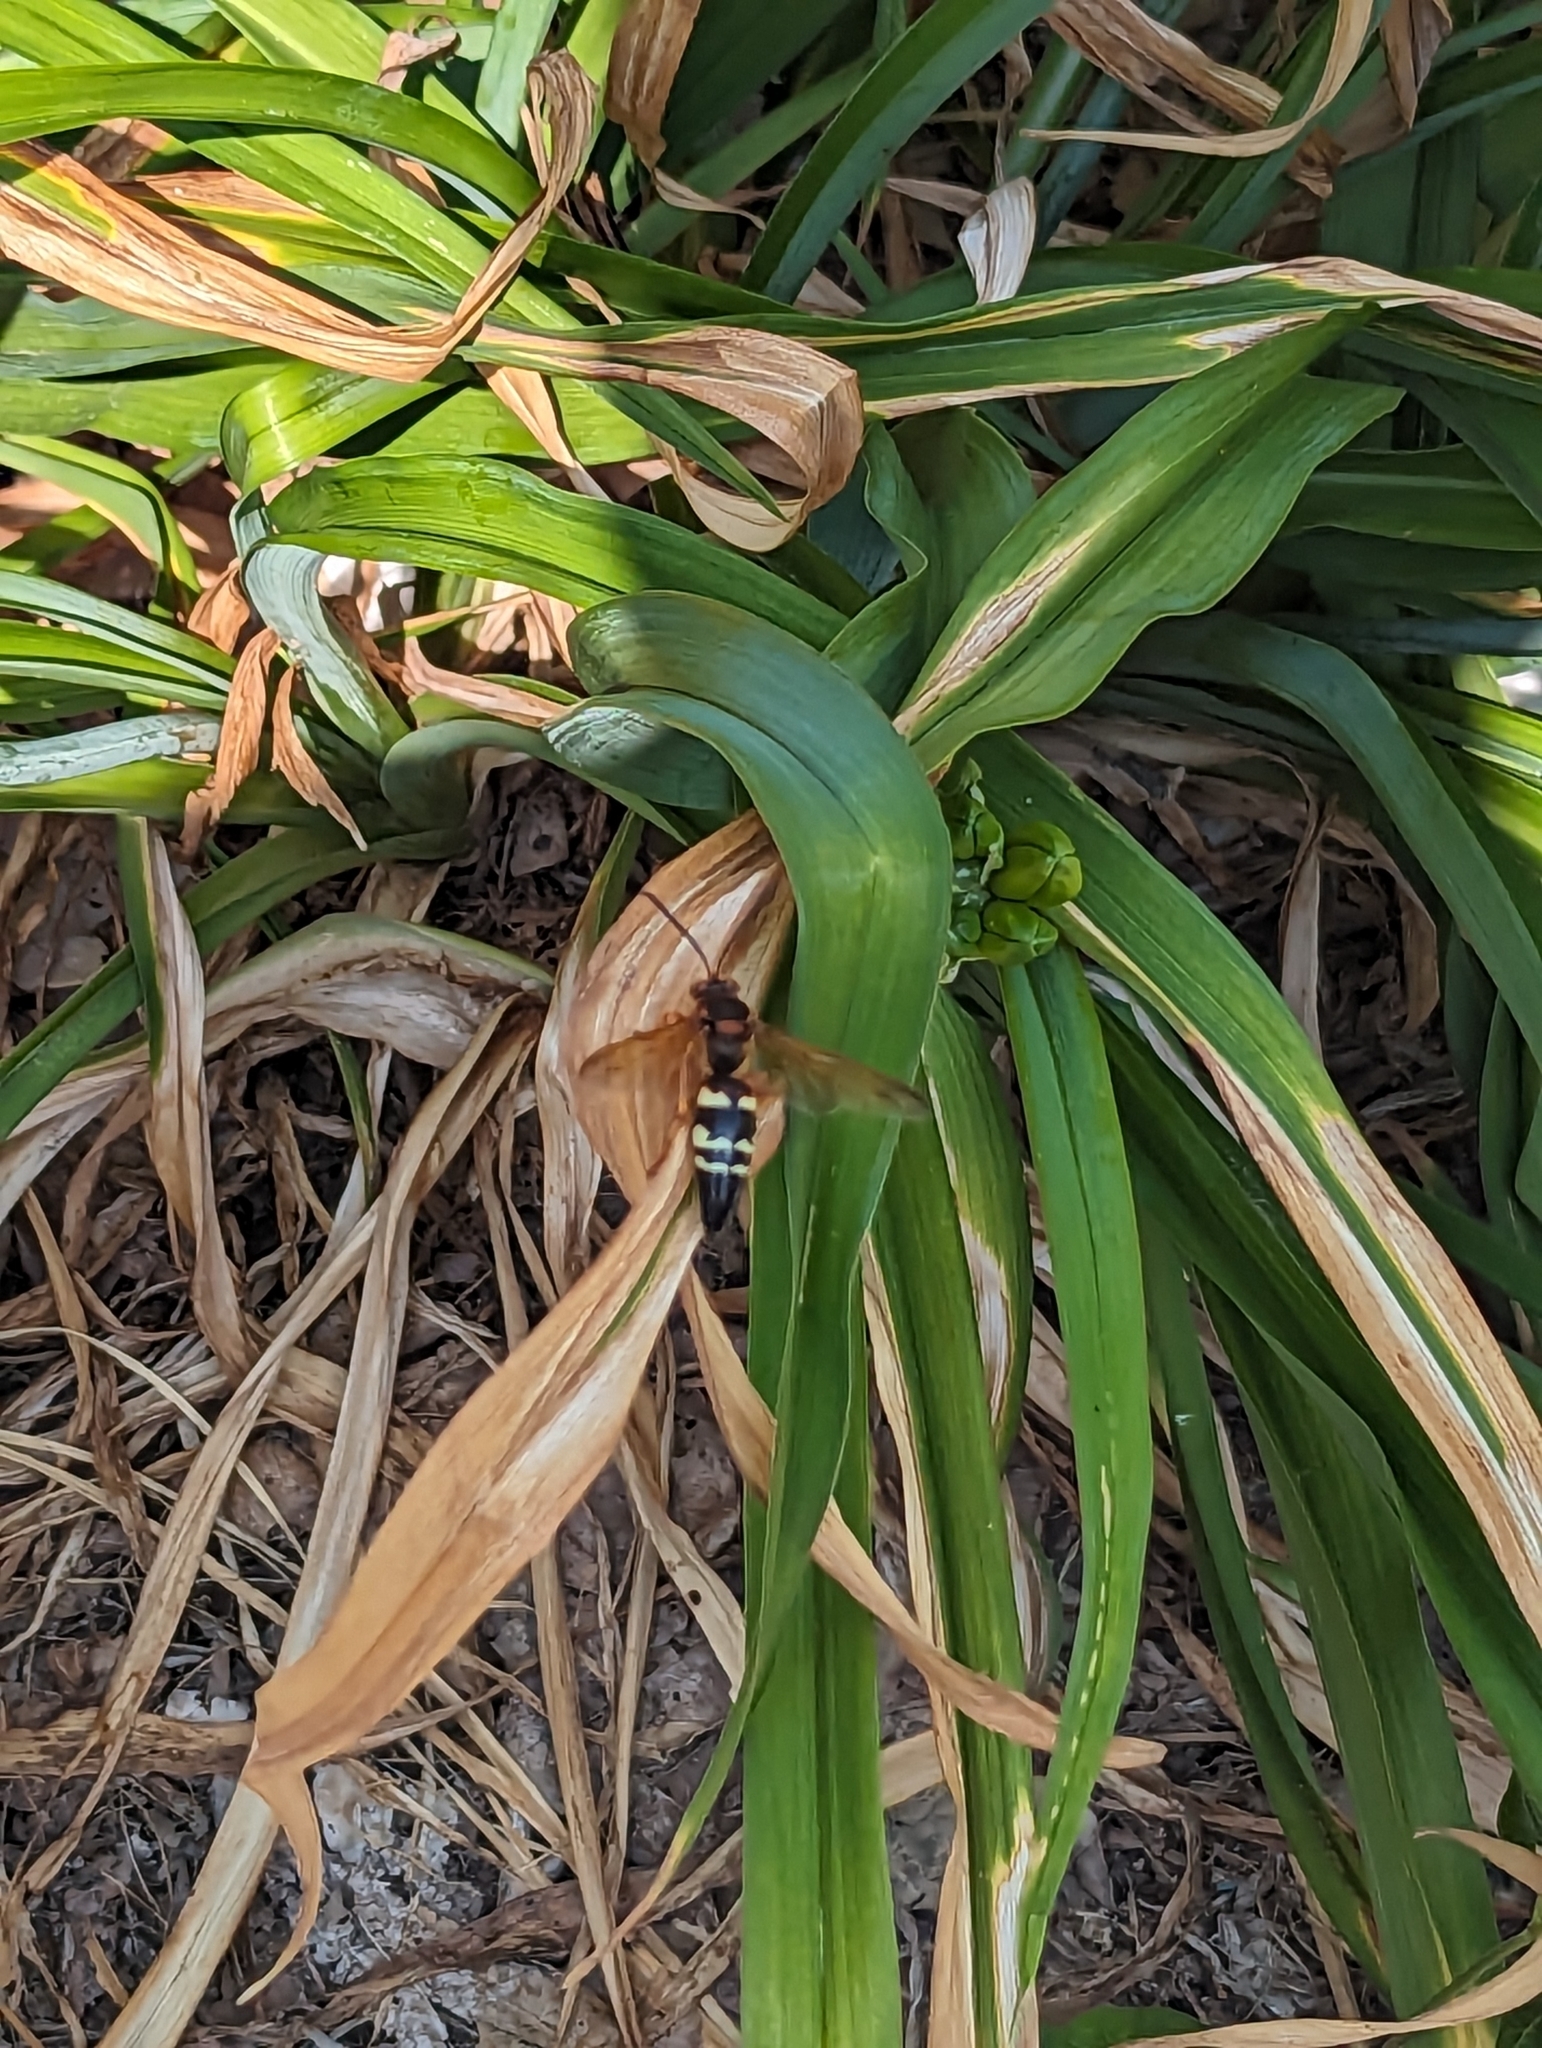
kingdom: Animalia
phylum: Arthropoda
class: Insecta
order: Hymenoptera
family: Crabronidae
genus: Sphecius
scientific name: Sphecius speciosus
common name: Cicada killer
